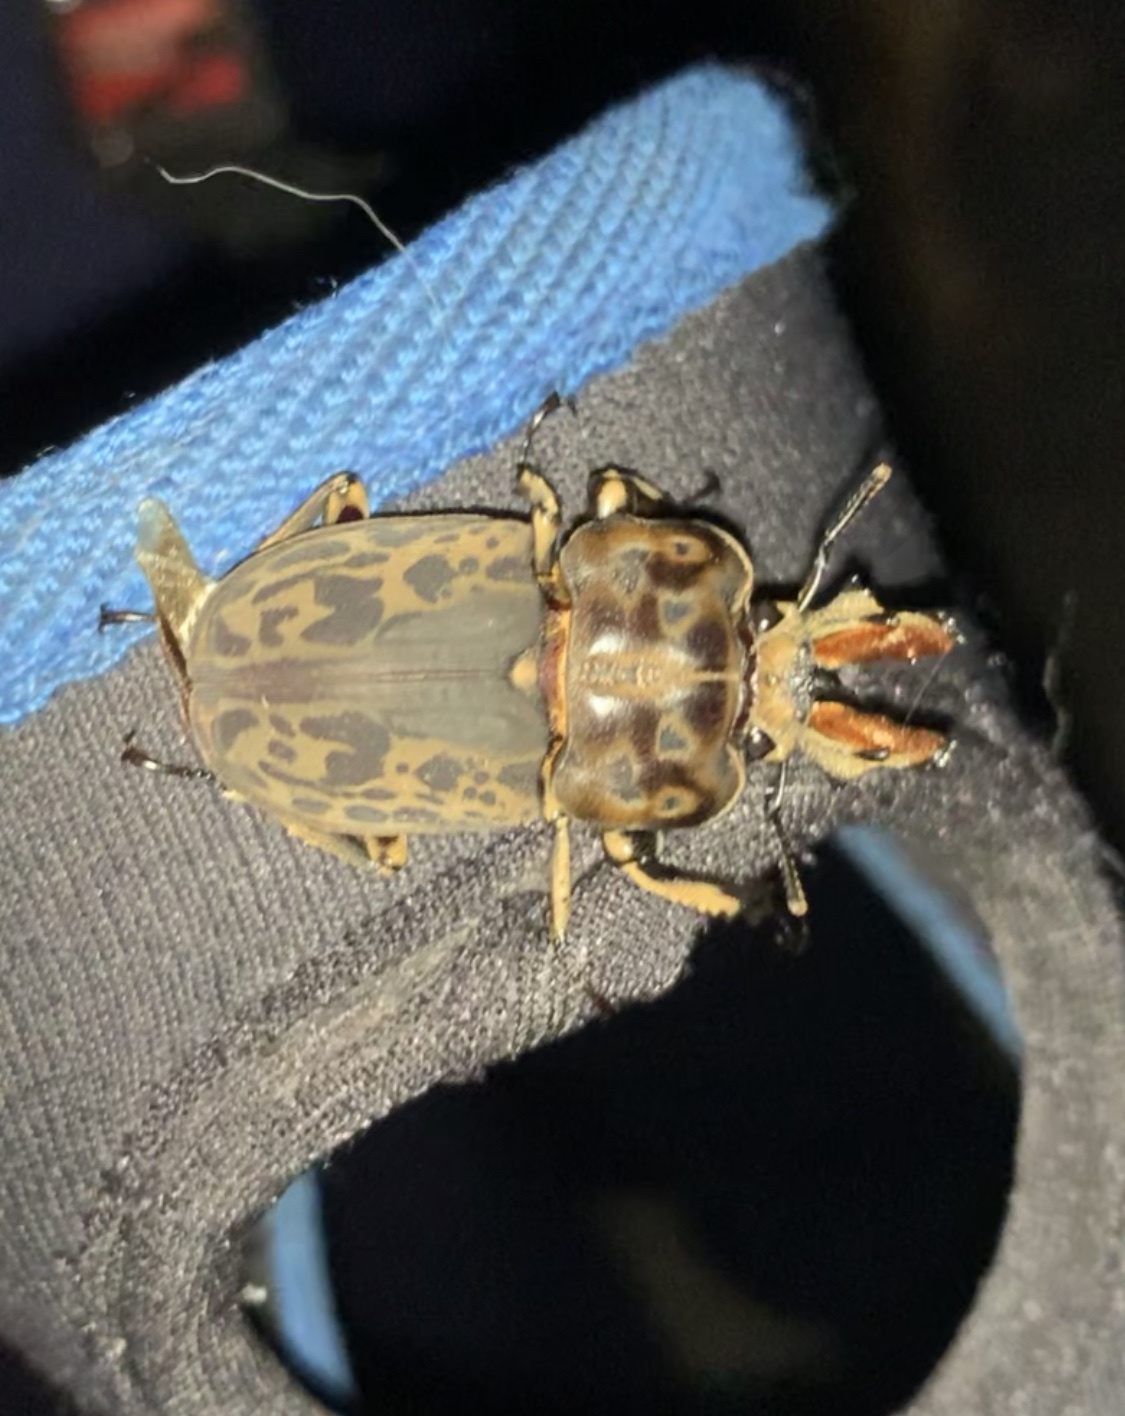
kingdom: Animalia
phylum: Arthropoda
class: Insecta
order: Coleoptera
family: Lucanidae
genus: Ryssonotus
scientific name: Ryssonotus nebulosus
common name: Brown stag beetle
